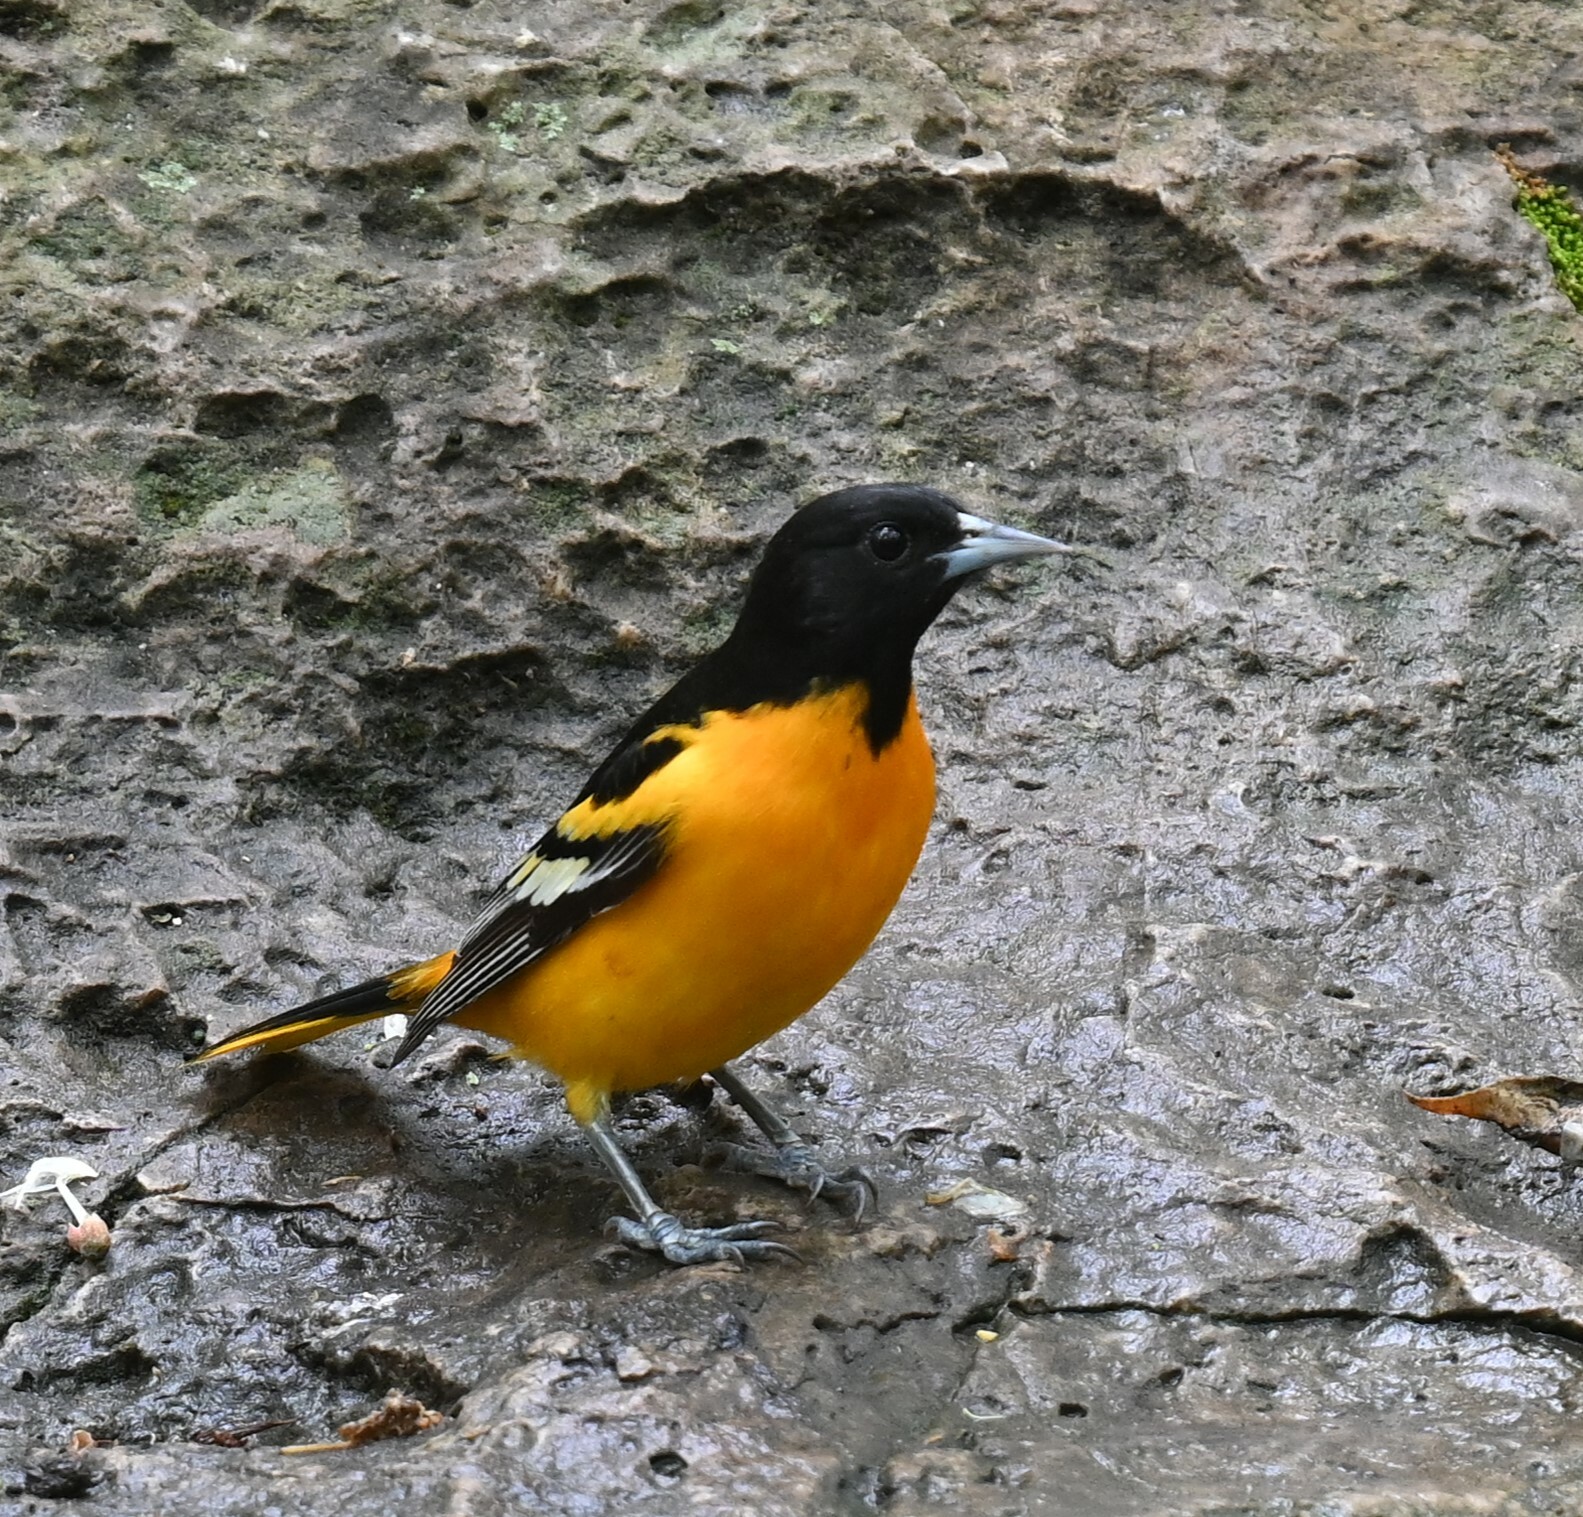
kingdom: Animalia
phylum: Chordata
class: Aves
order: Passeriformes
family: Icteridae
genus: Icterus
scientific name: Icterus galbula
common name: Baltimore oriole
